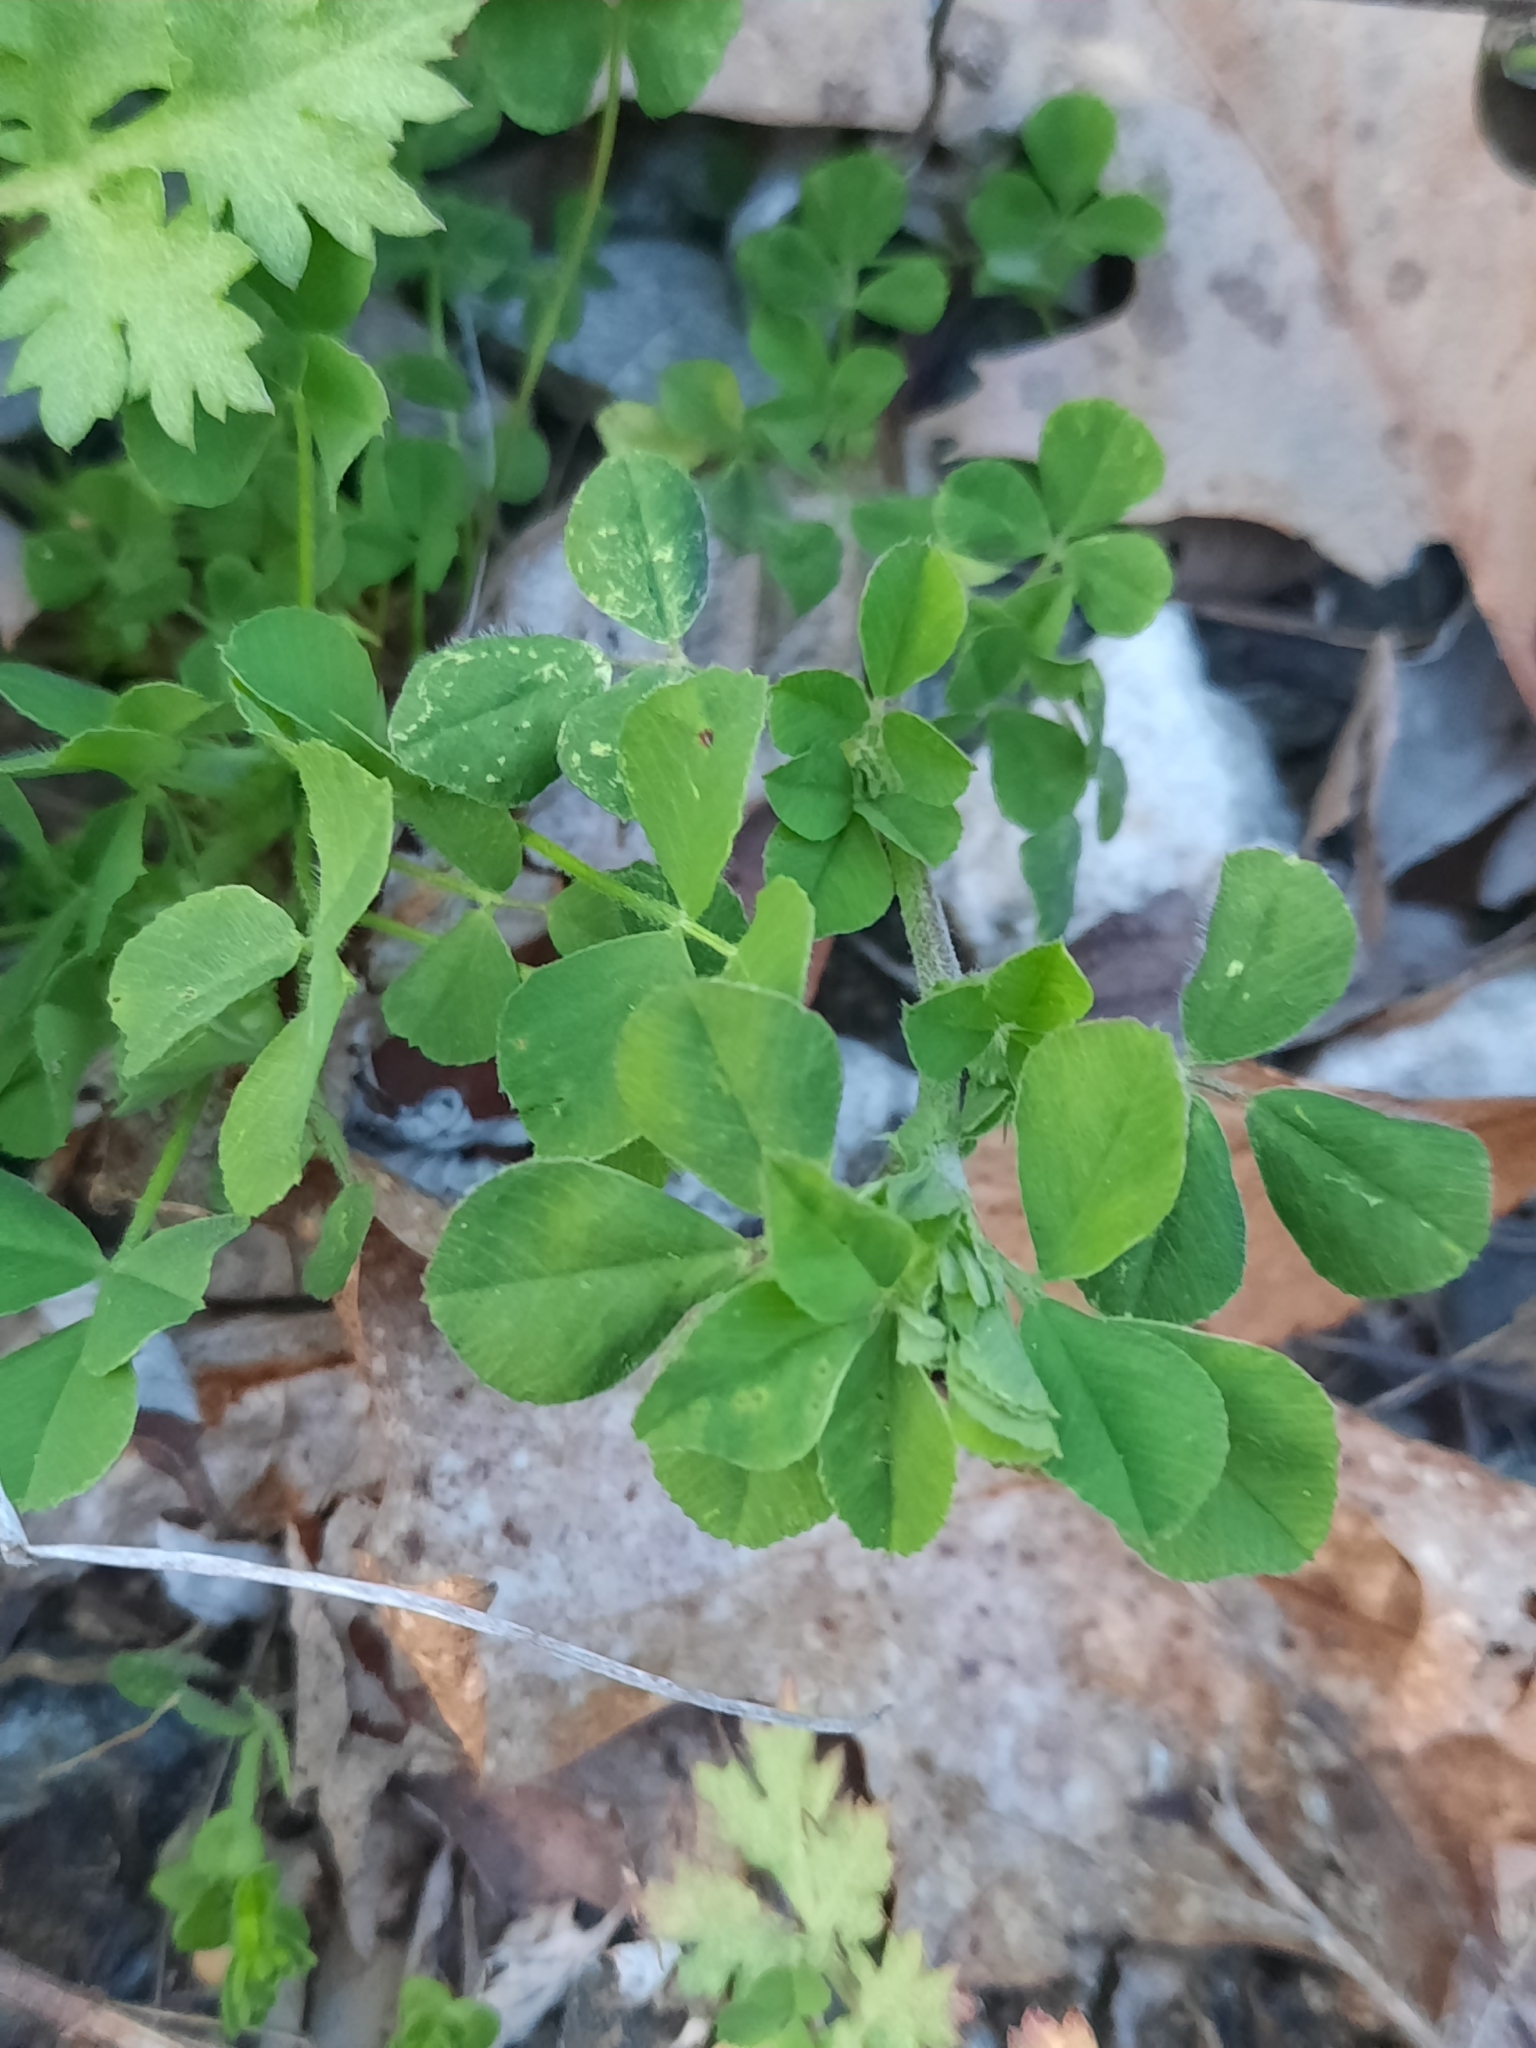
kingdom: Plantae
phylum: Tracheophyta
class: Magnoliopsida
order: Fabales
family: Fabaceae
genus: Medicago
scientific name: Medicago lupulina
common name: Black medick
